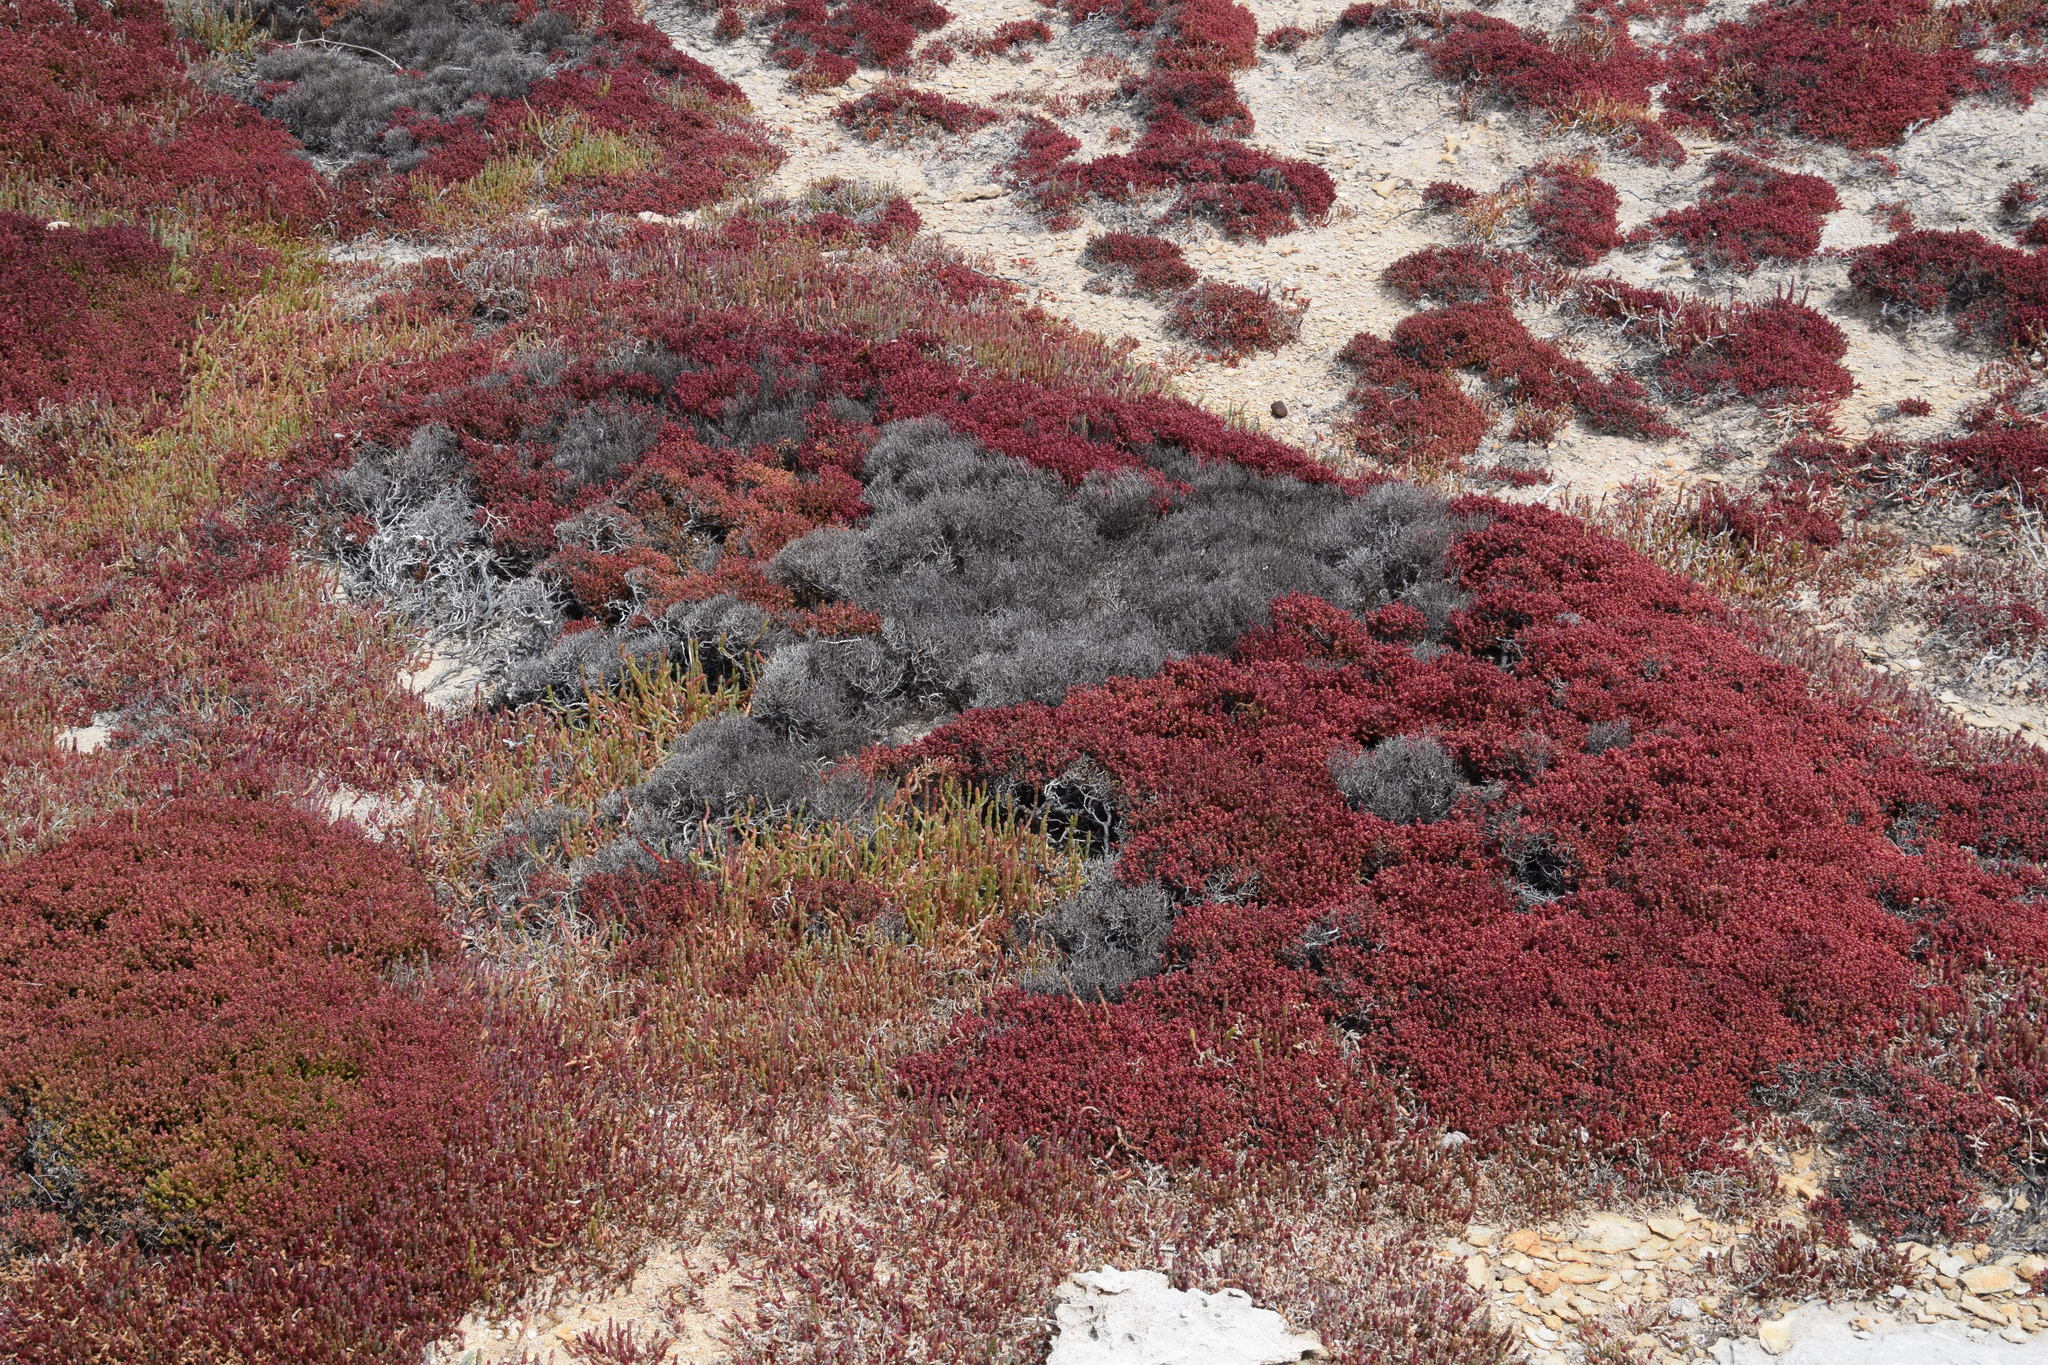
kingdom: Plantae
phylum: Tracheophyta
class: Magnoliopsida
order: Caryophyllales
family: Amaranthaceae
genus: Tecticornia
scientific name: Tecticornia halocnemoides
